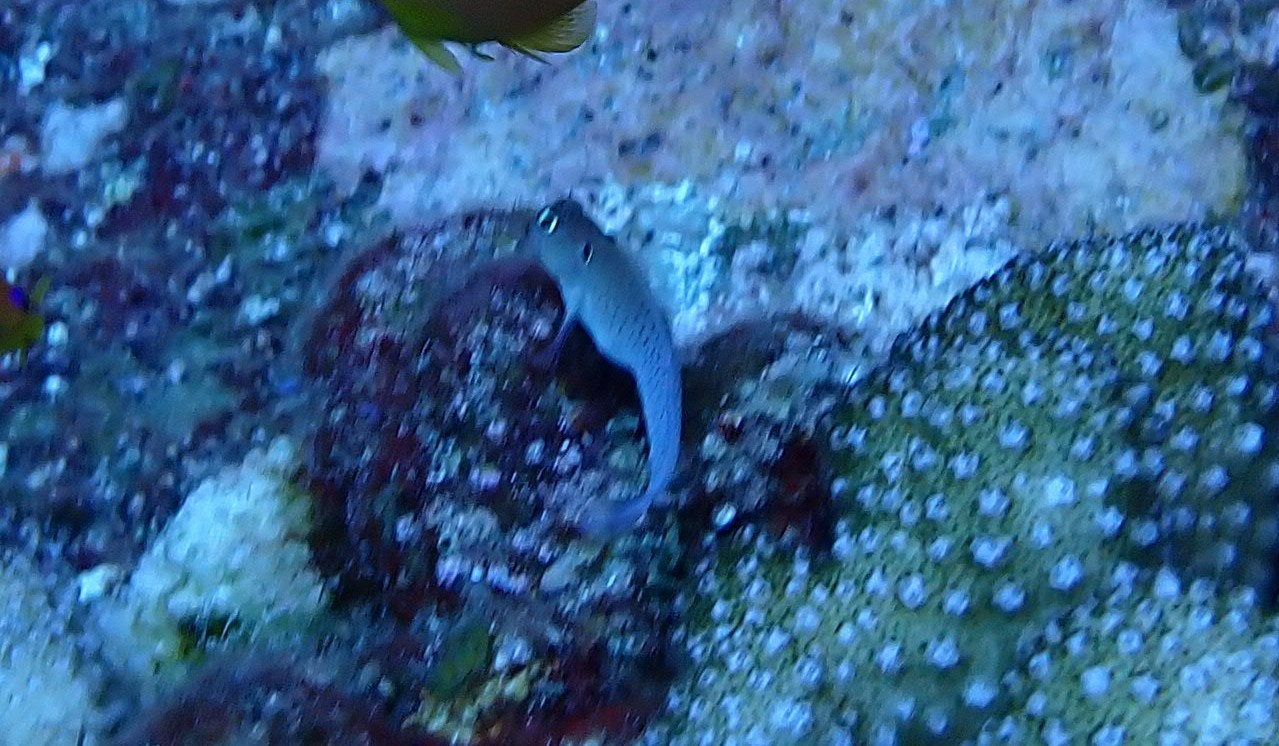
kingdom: Animalia
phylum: Chordata
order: Perciformes
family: Blenniidae
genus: Cirripectes
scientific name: Cirripectes auritus
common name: Eared blenny
